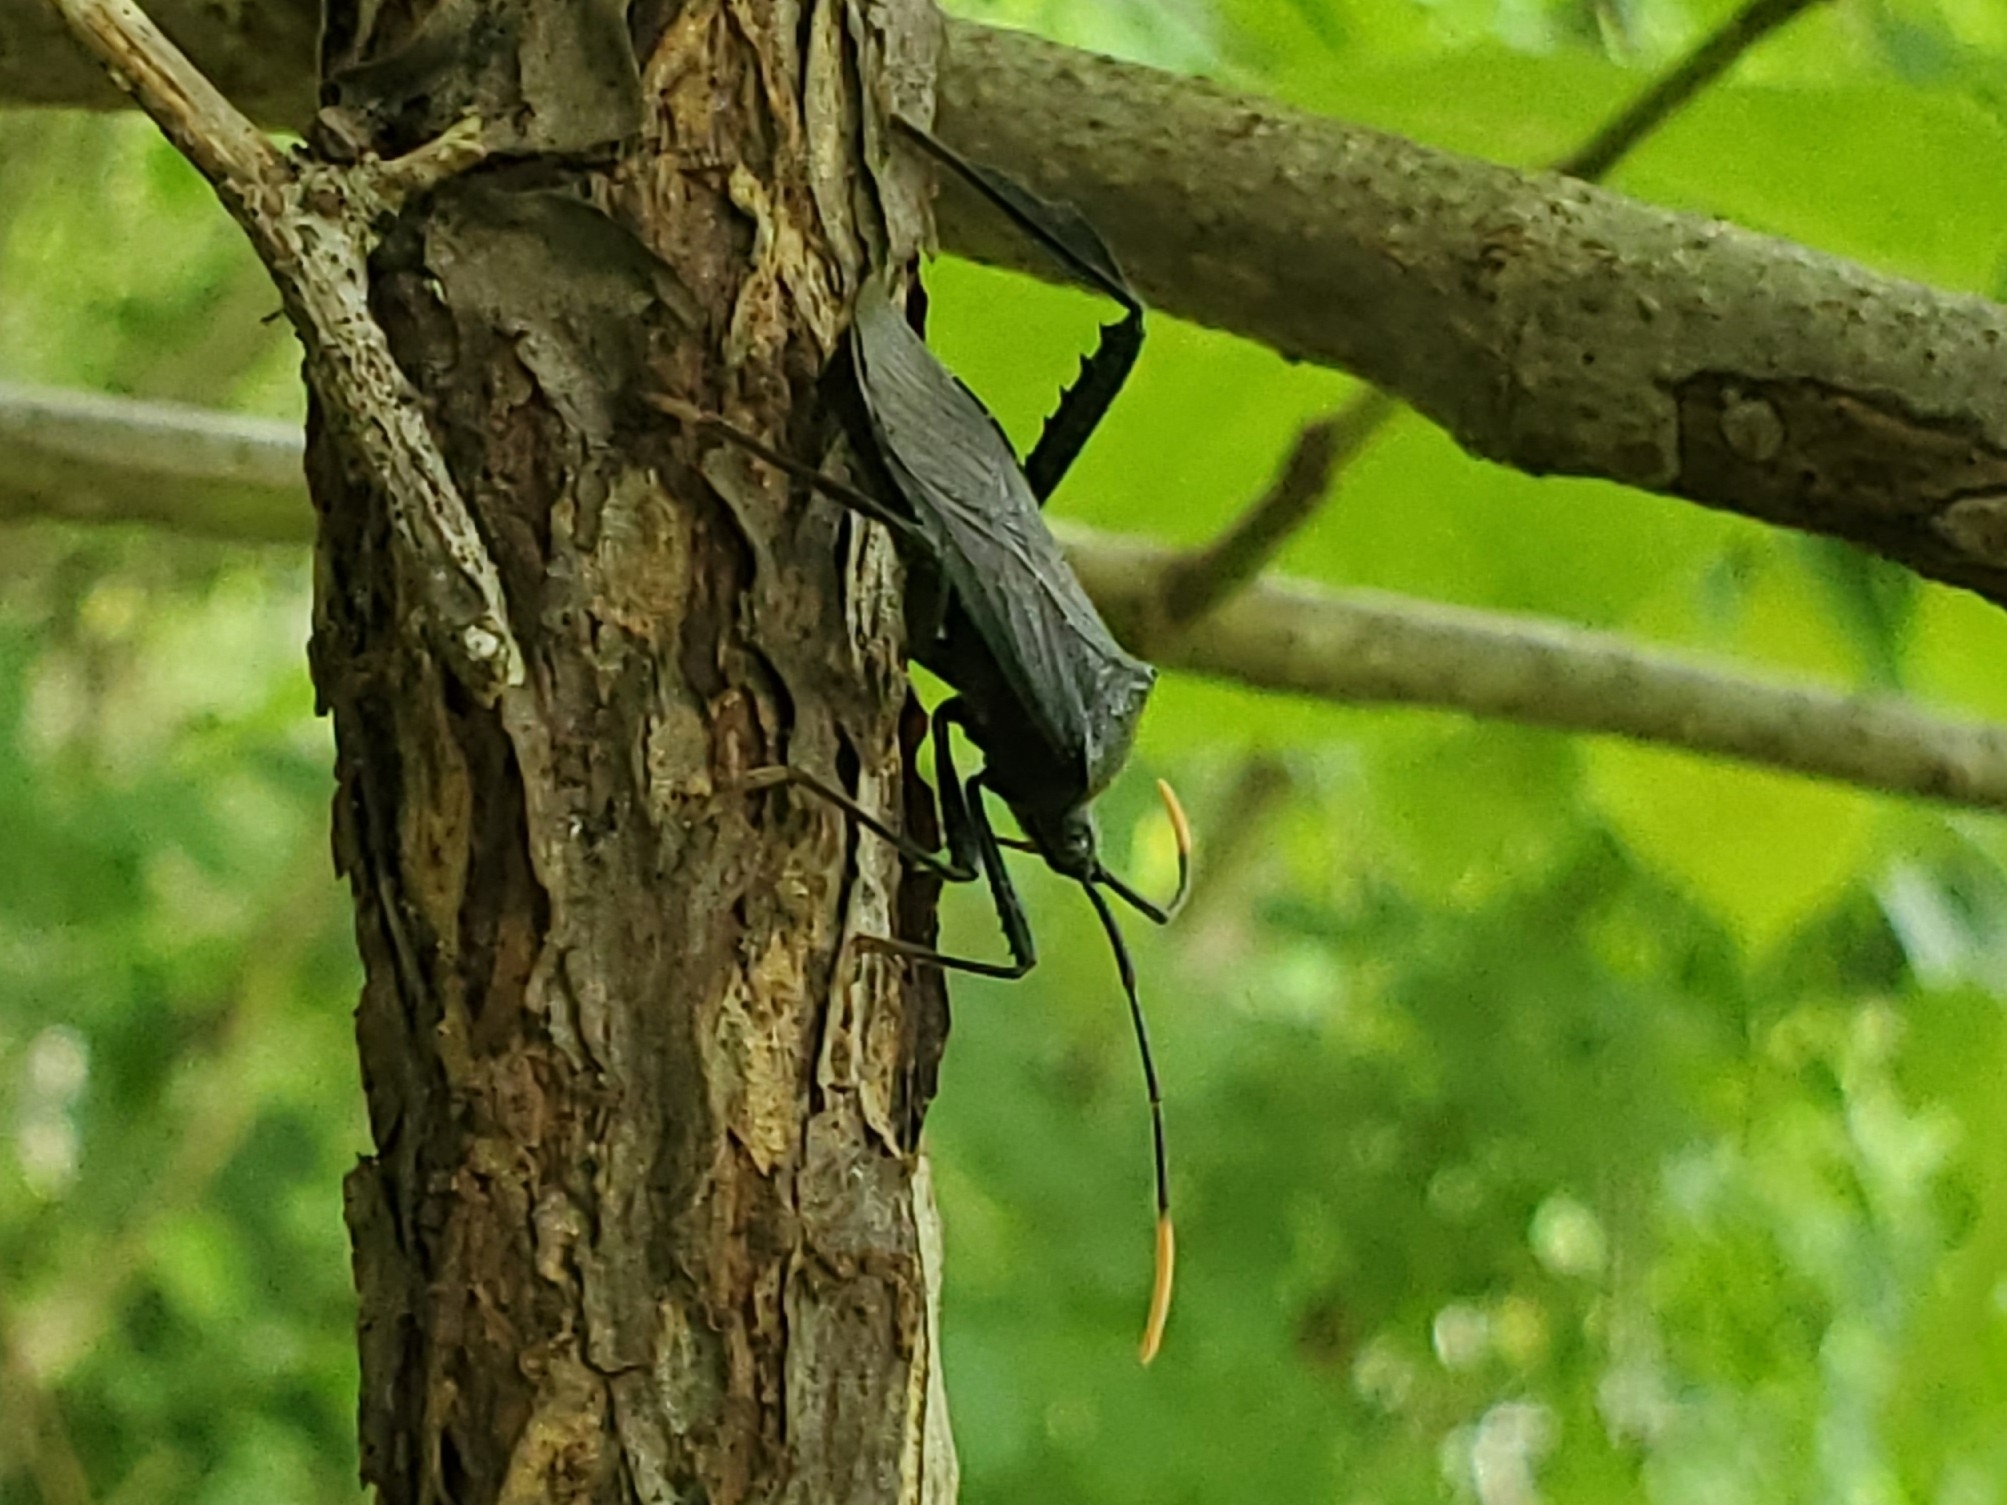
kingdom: Animalia
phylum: Arthropoda
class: Insecta
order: Hemiptera
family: Coreidae
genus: Acanthocephala
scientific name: Acanthocephala terminalis
